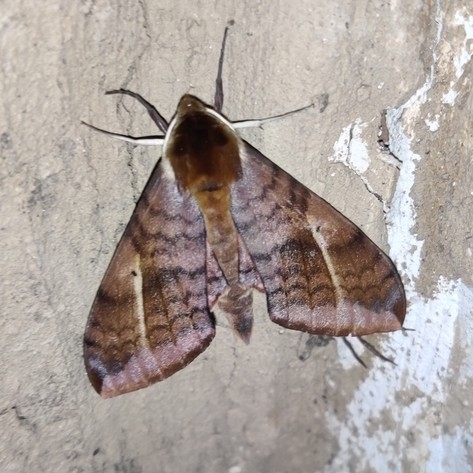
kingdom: Animalia
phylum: Arthropoda
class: Insecta
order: Lepidoptera
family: Sphingidae
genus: Clanidopsis
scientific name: Clanidopsis exusta
